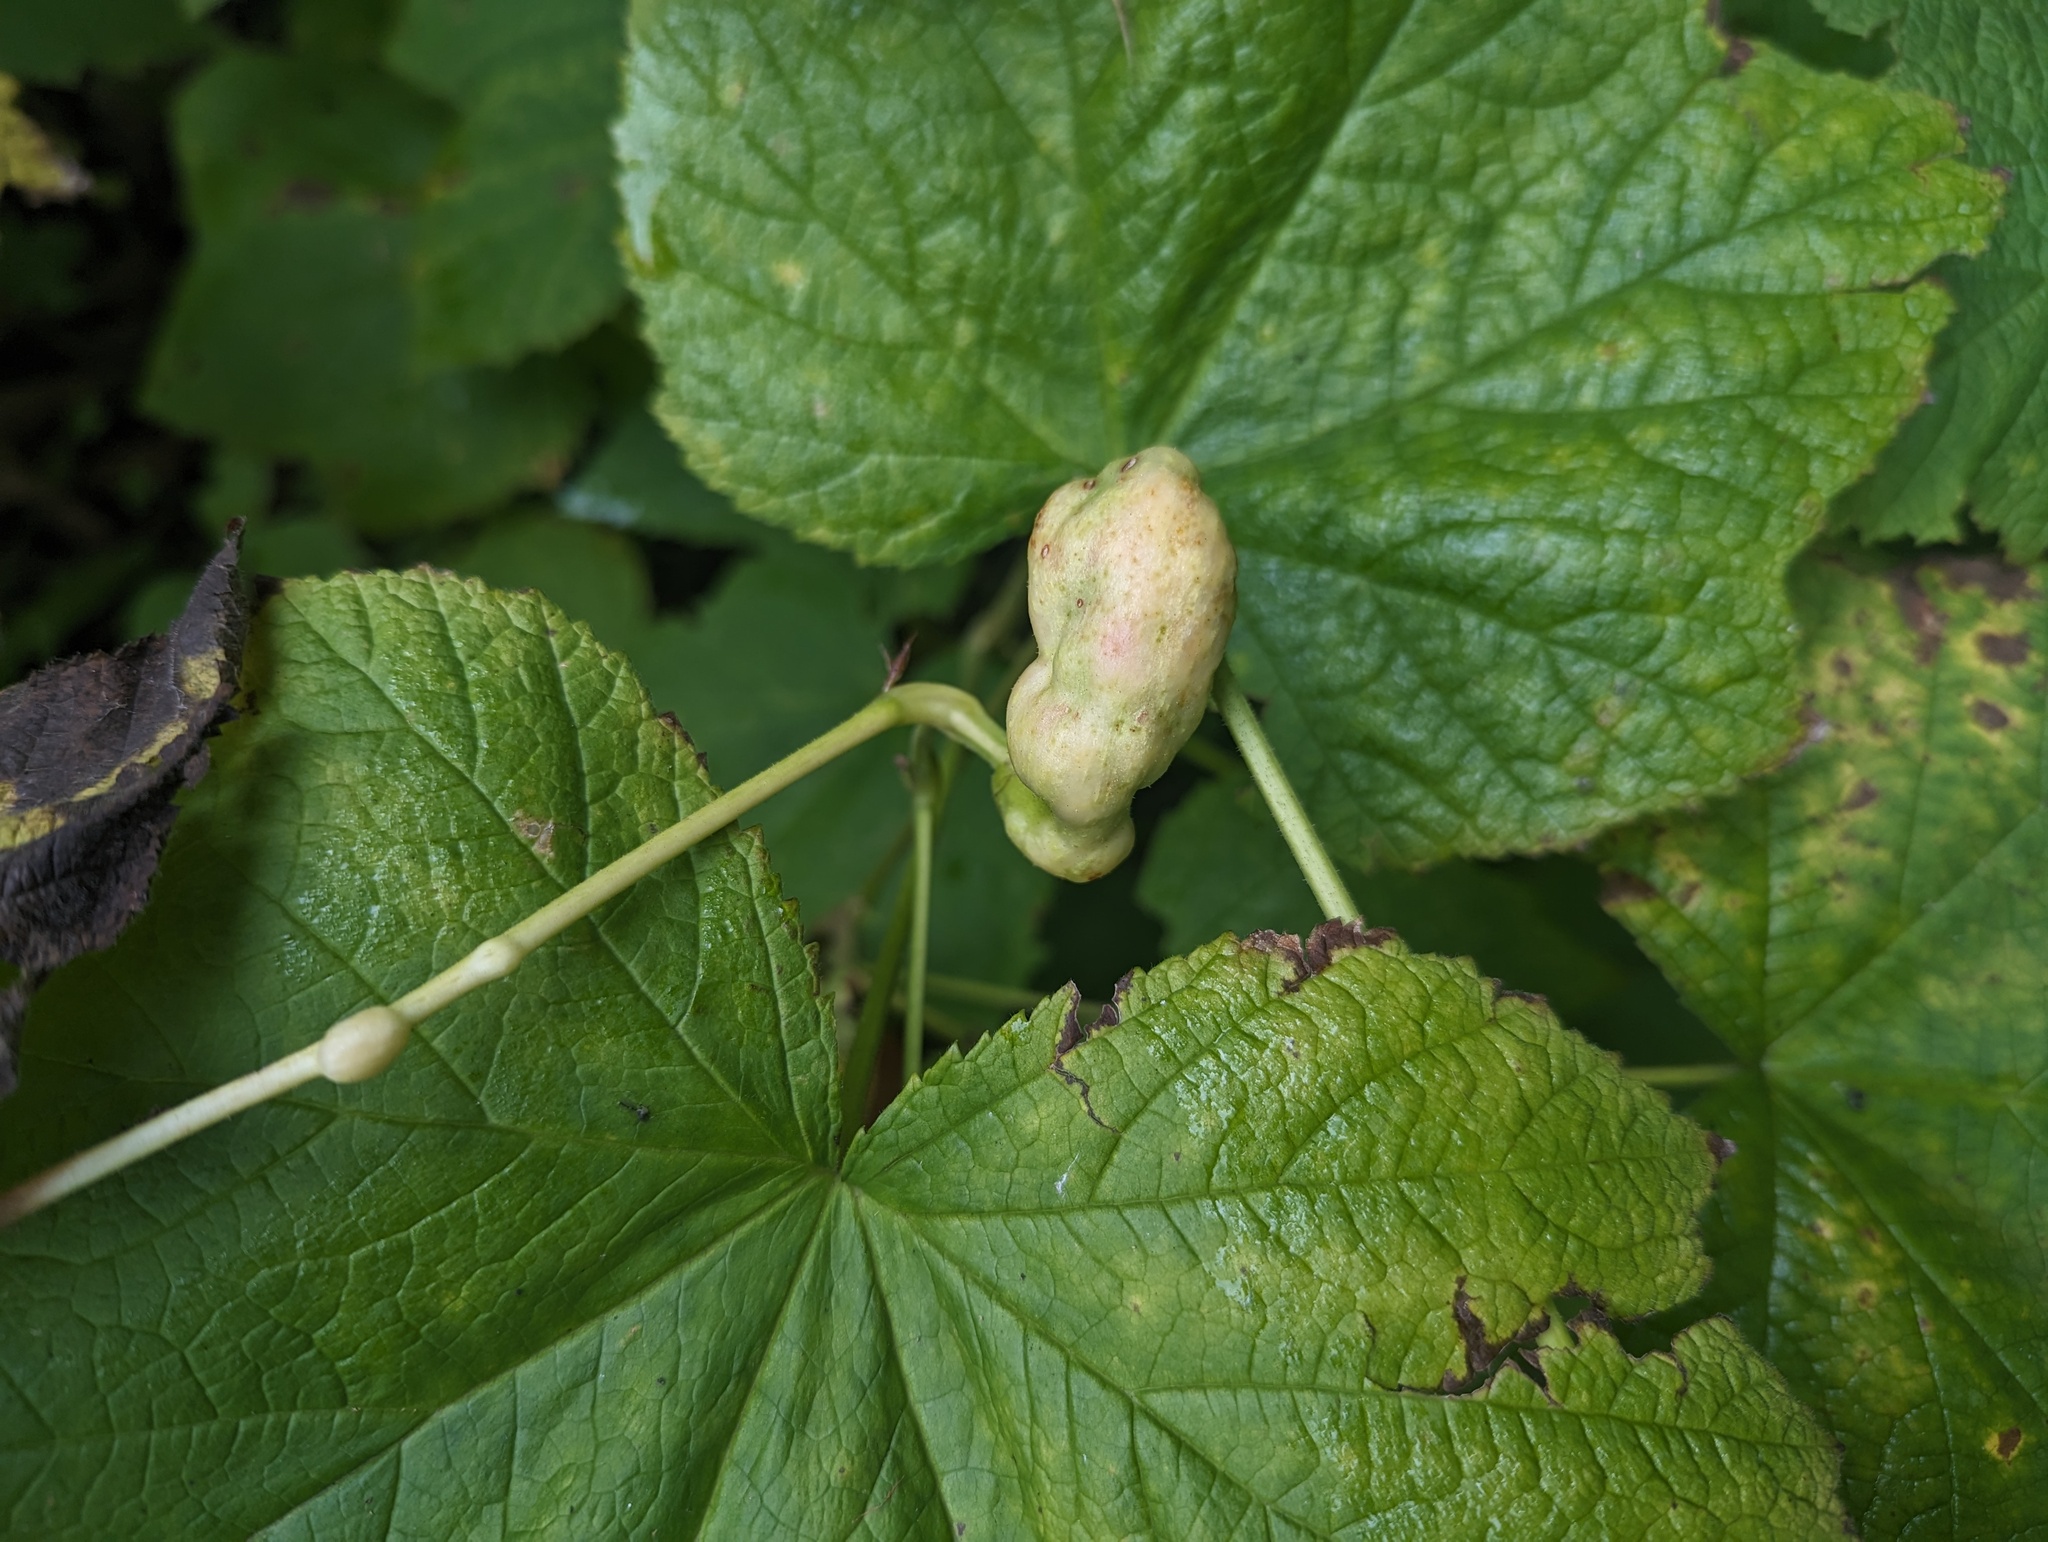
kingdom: Animalia
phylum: Arthropoda
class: Insecta
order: Hymenoptera
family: Cynipidae
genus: Diastrophus
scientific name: Diastrophus
